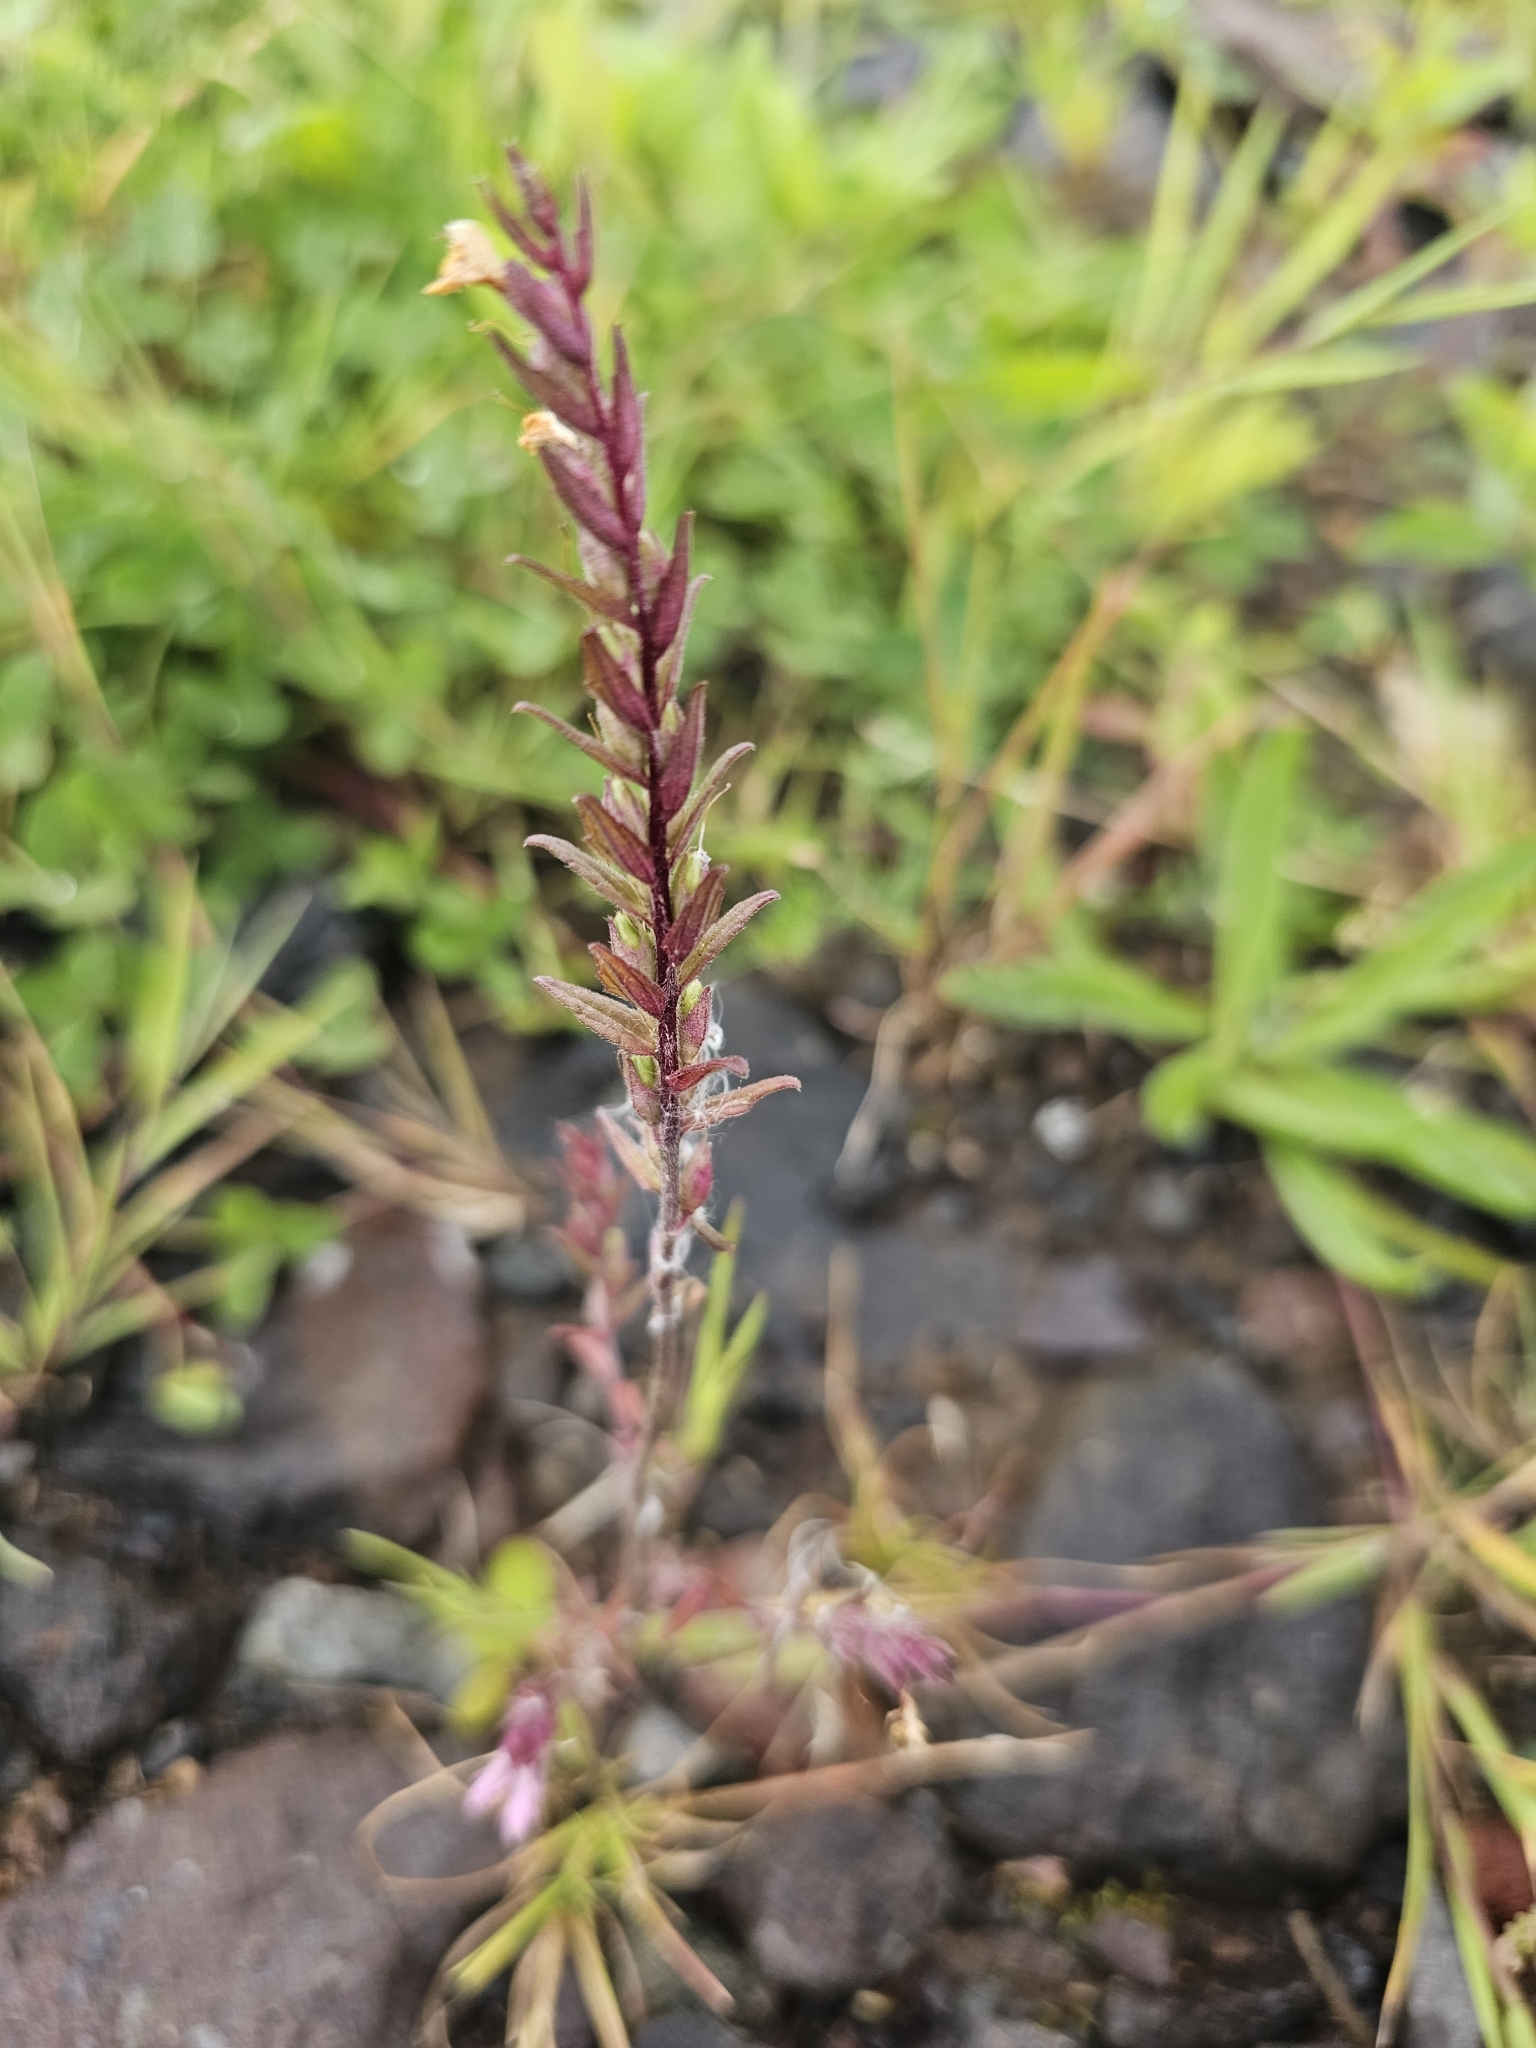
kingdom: Plantae
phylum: Tracheophyta
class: Magnoliopsida
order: Lamiales
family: Orobanchaceae
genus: Odontites
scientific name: Odontites vernus
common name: Red bartsia
